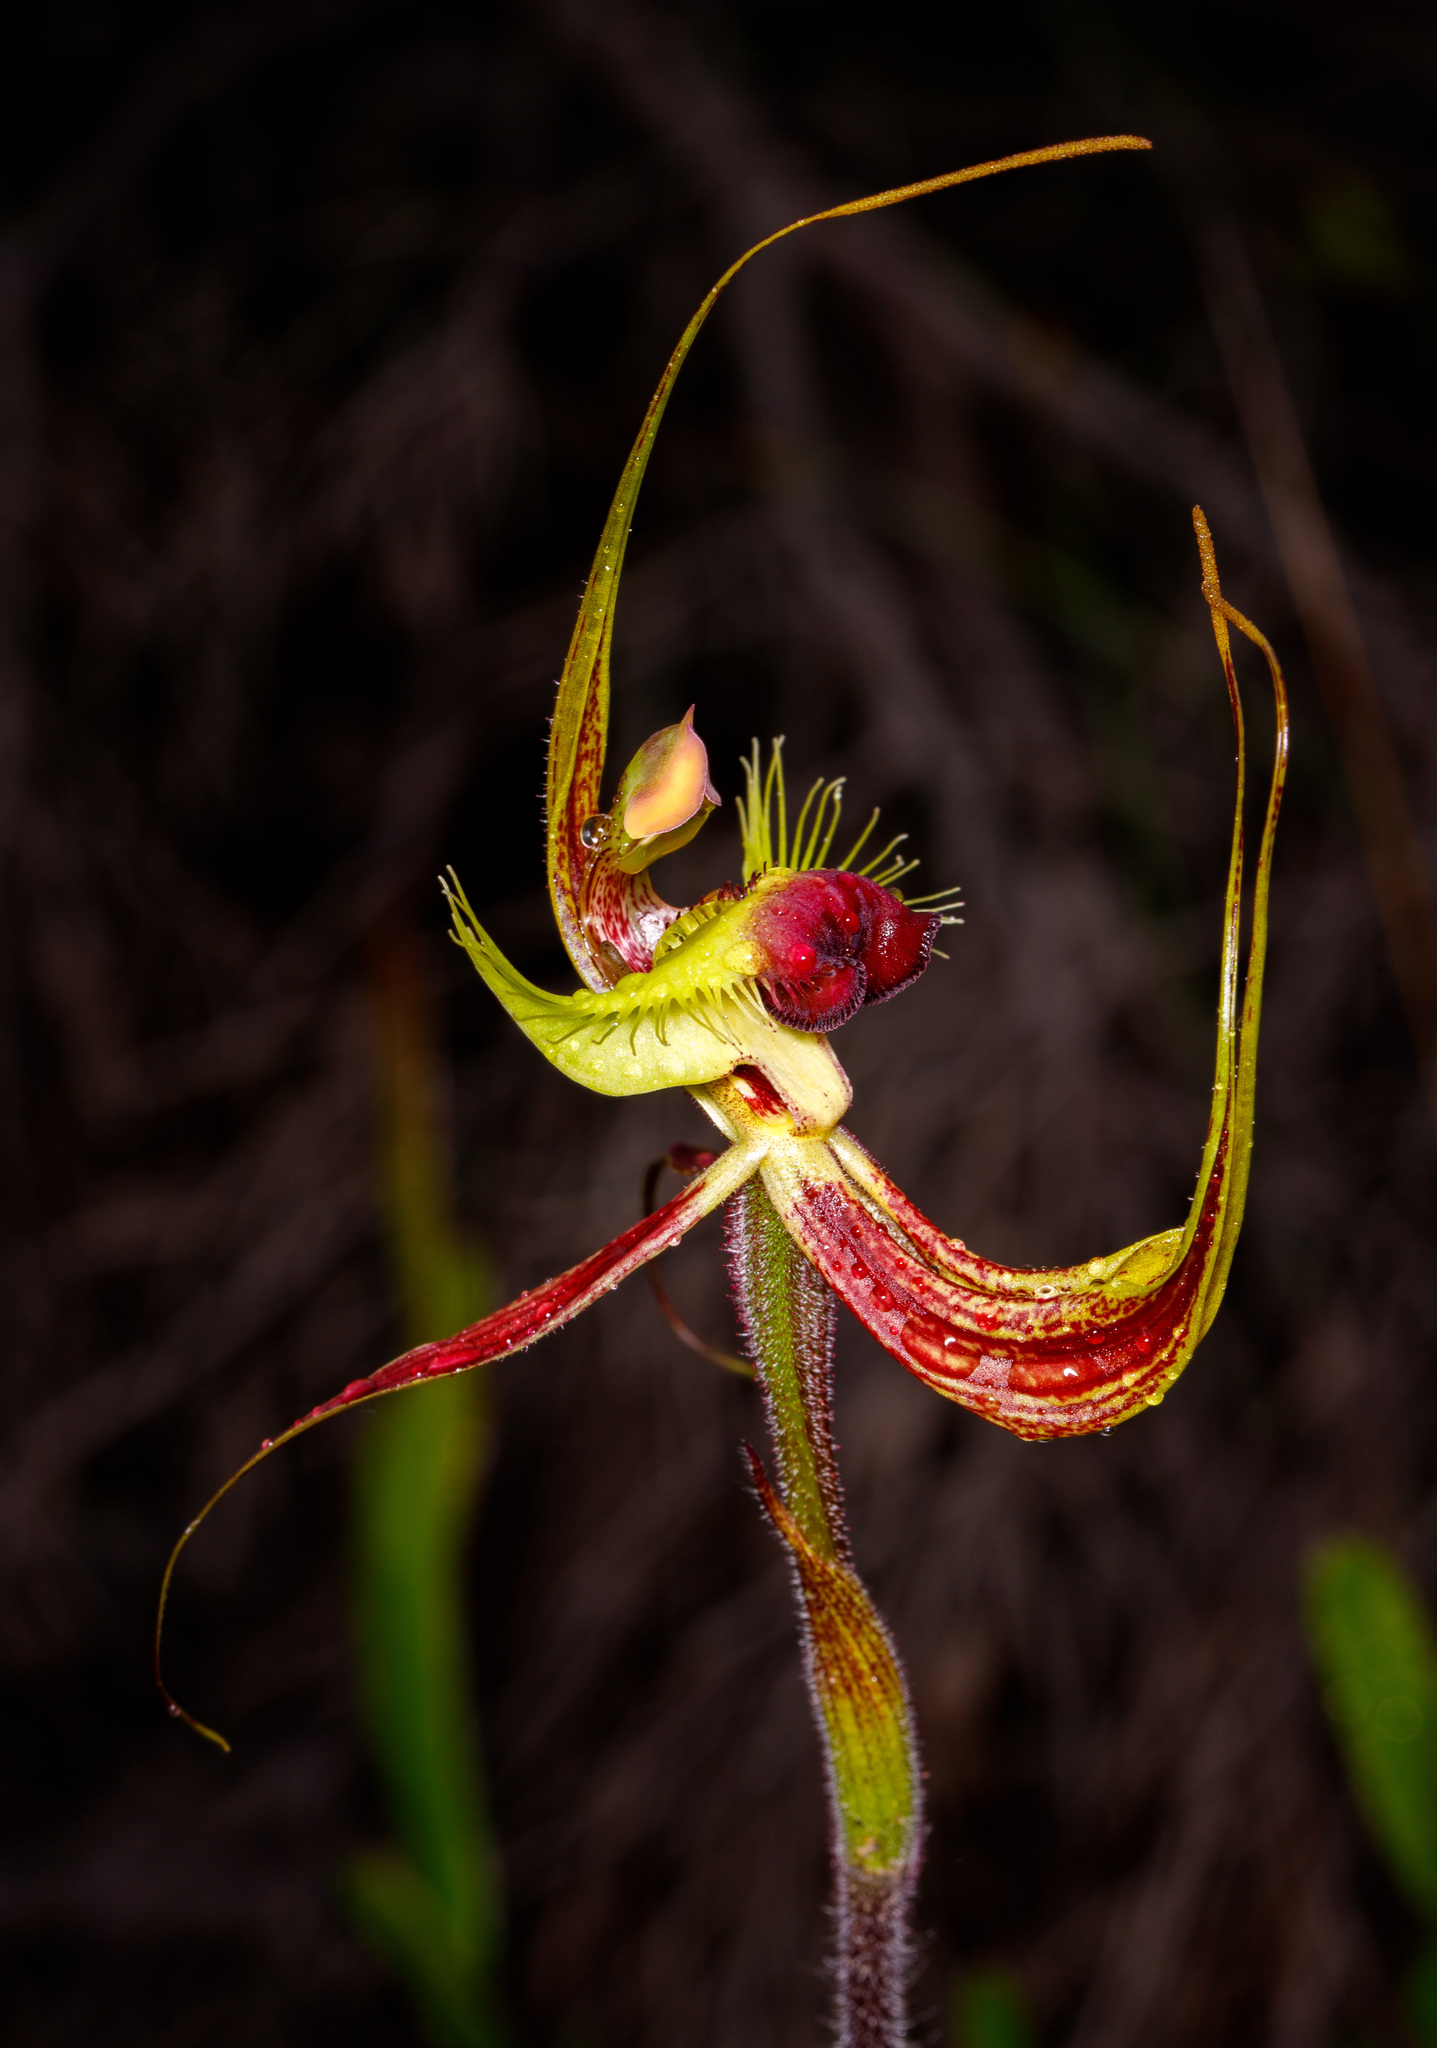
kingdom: Plantae
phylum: Tracheophyta
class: Liliopsida
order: Asparagales
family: Orchidaceae
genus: Caladenia
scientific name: Caladenia lobata
